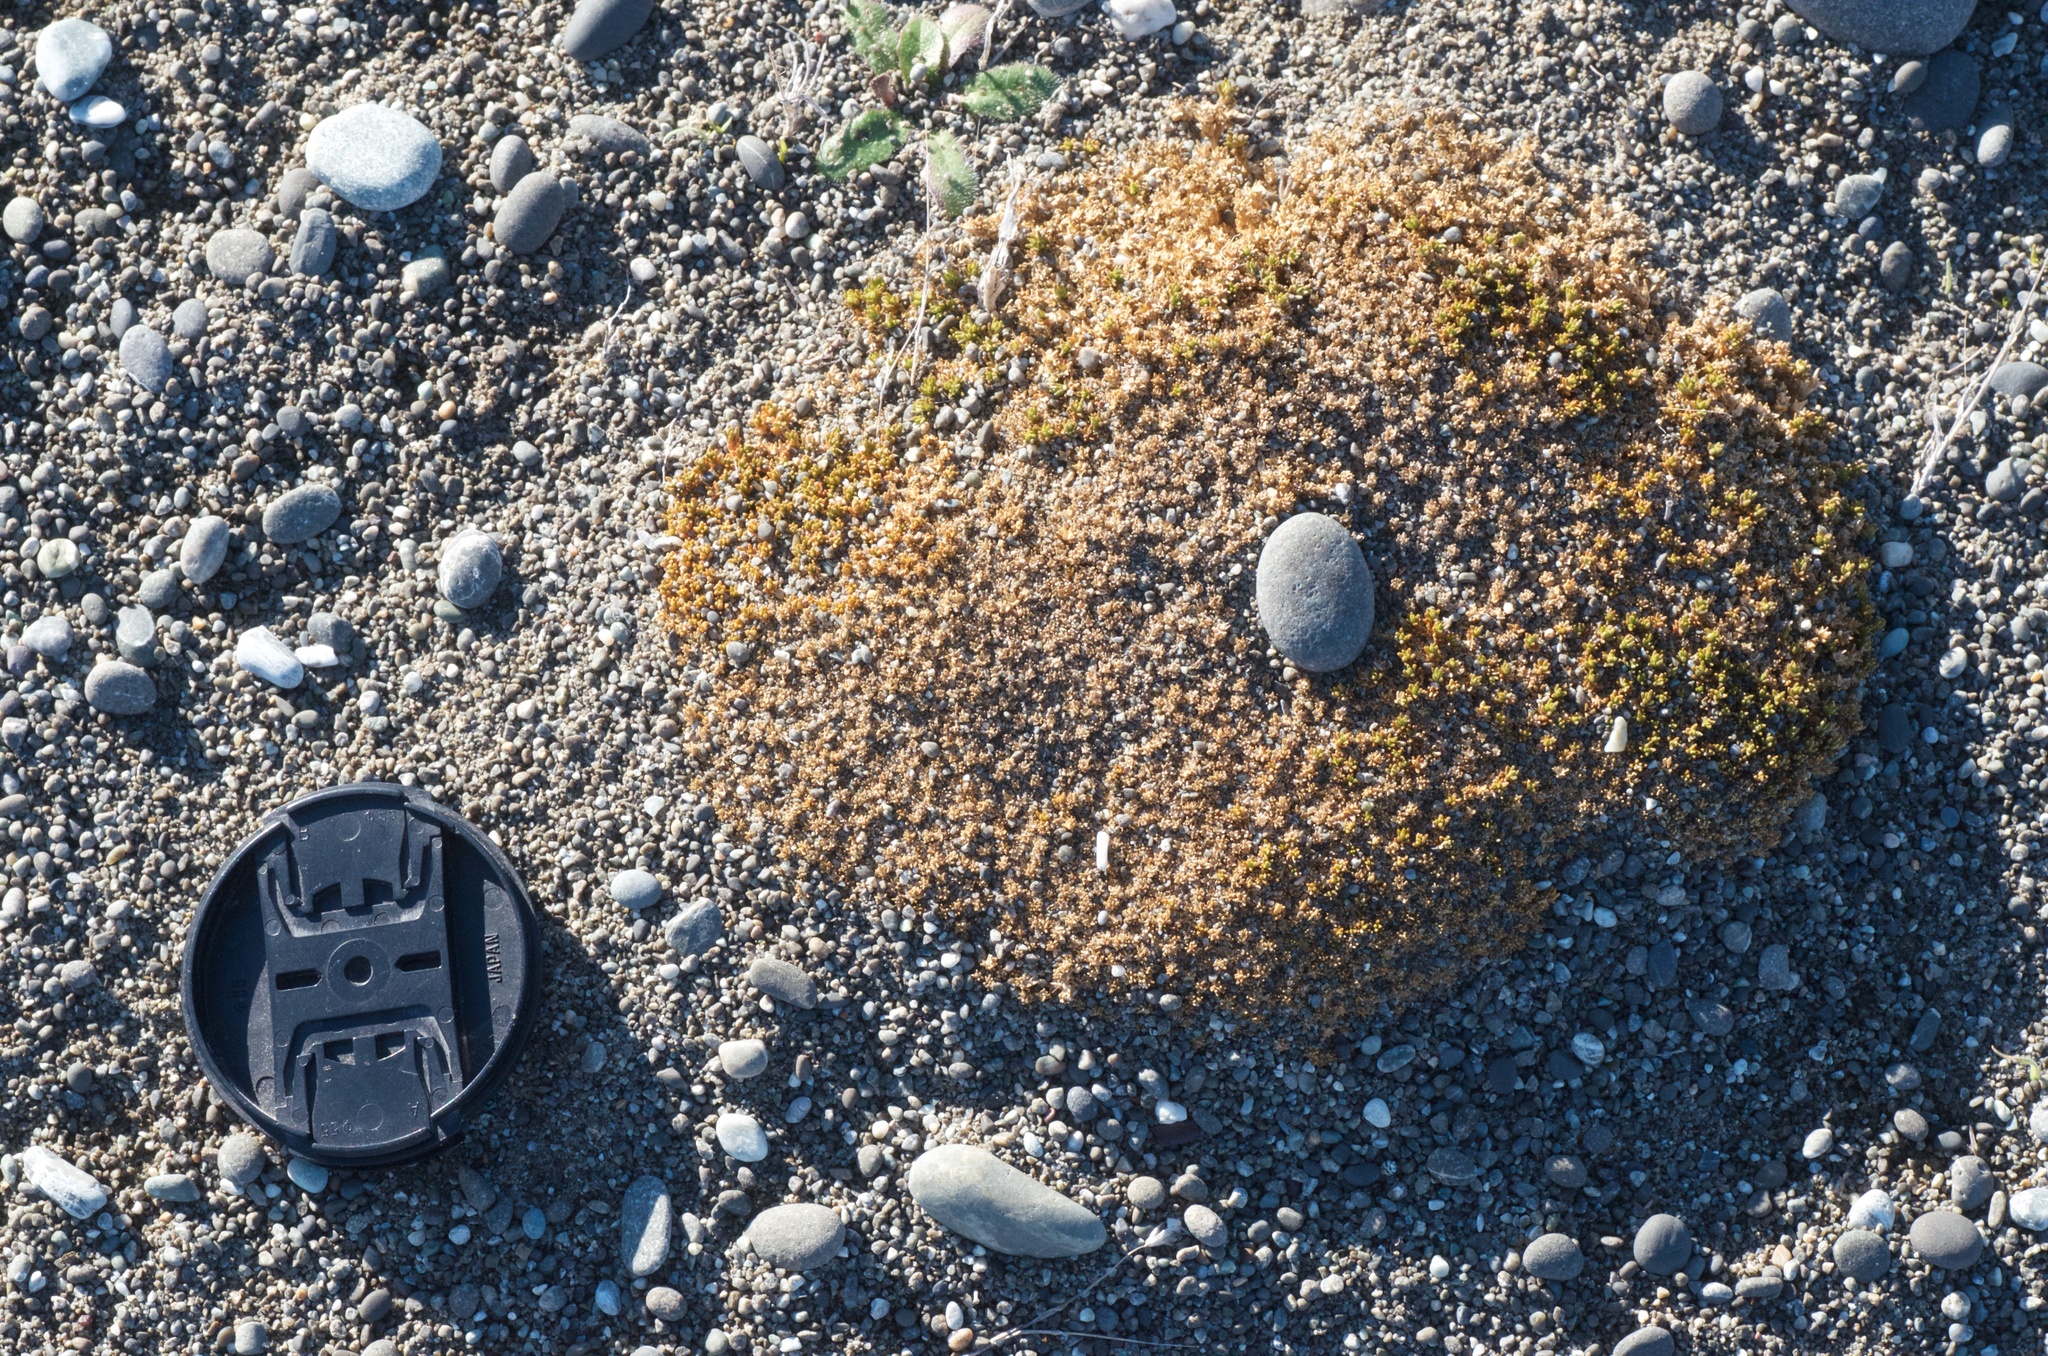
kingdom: Plantae
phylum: Tracheophyta
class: Magnoliopsida
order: Caryophyllales
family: Caryophyllaceae
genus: Scleranthus
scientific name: Scleranthus biflorus
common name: Two-flower knawel
